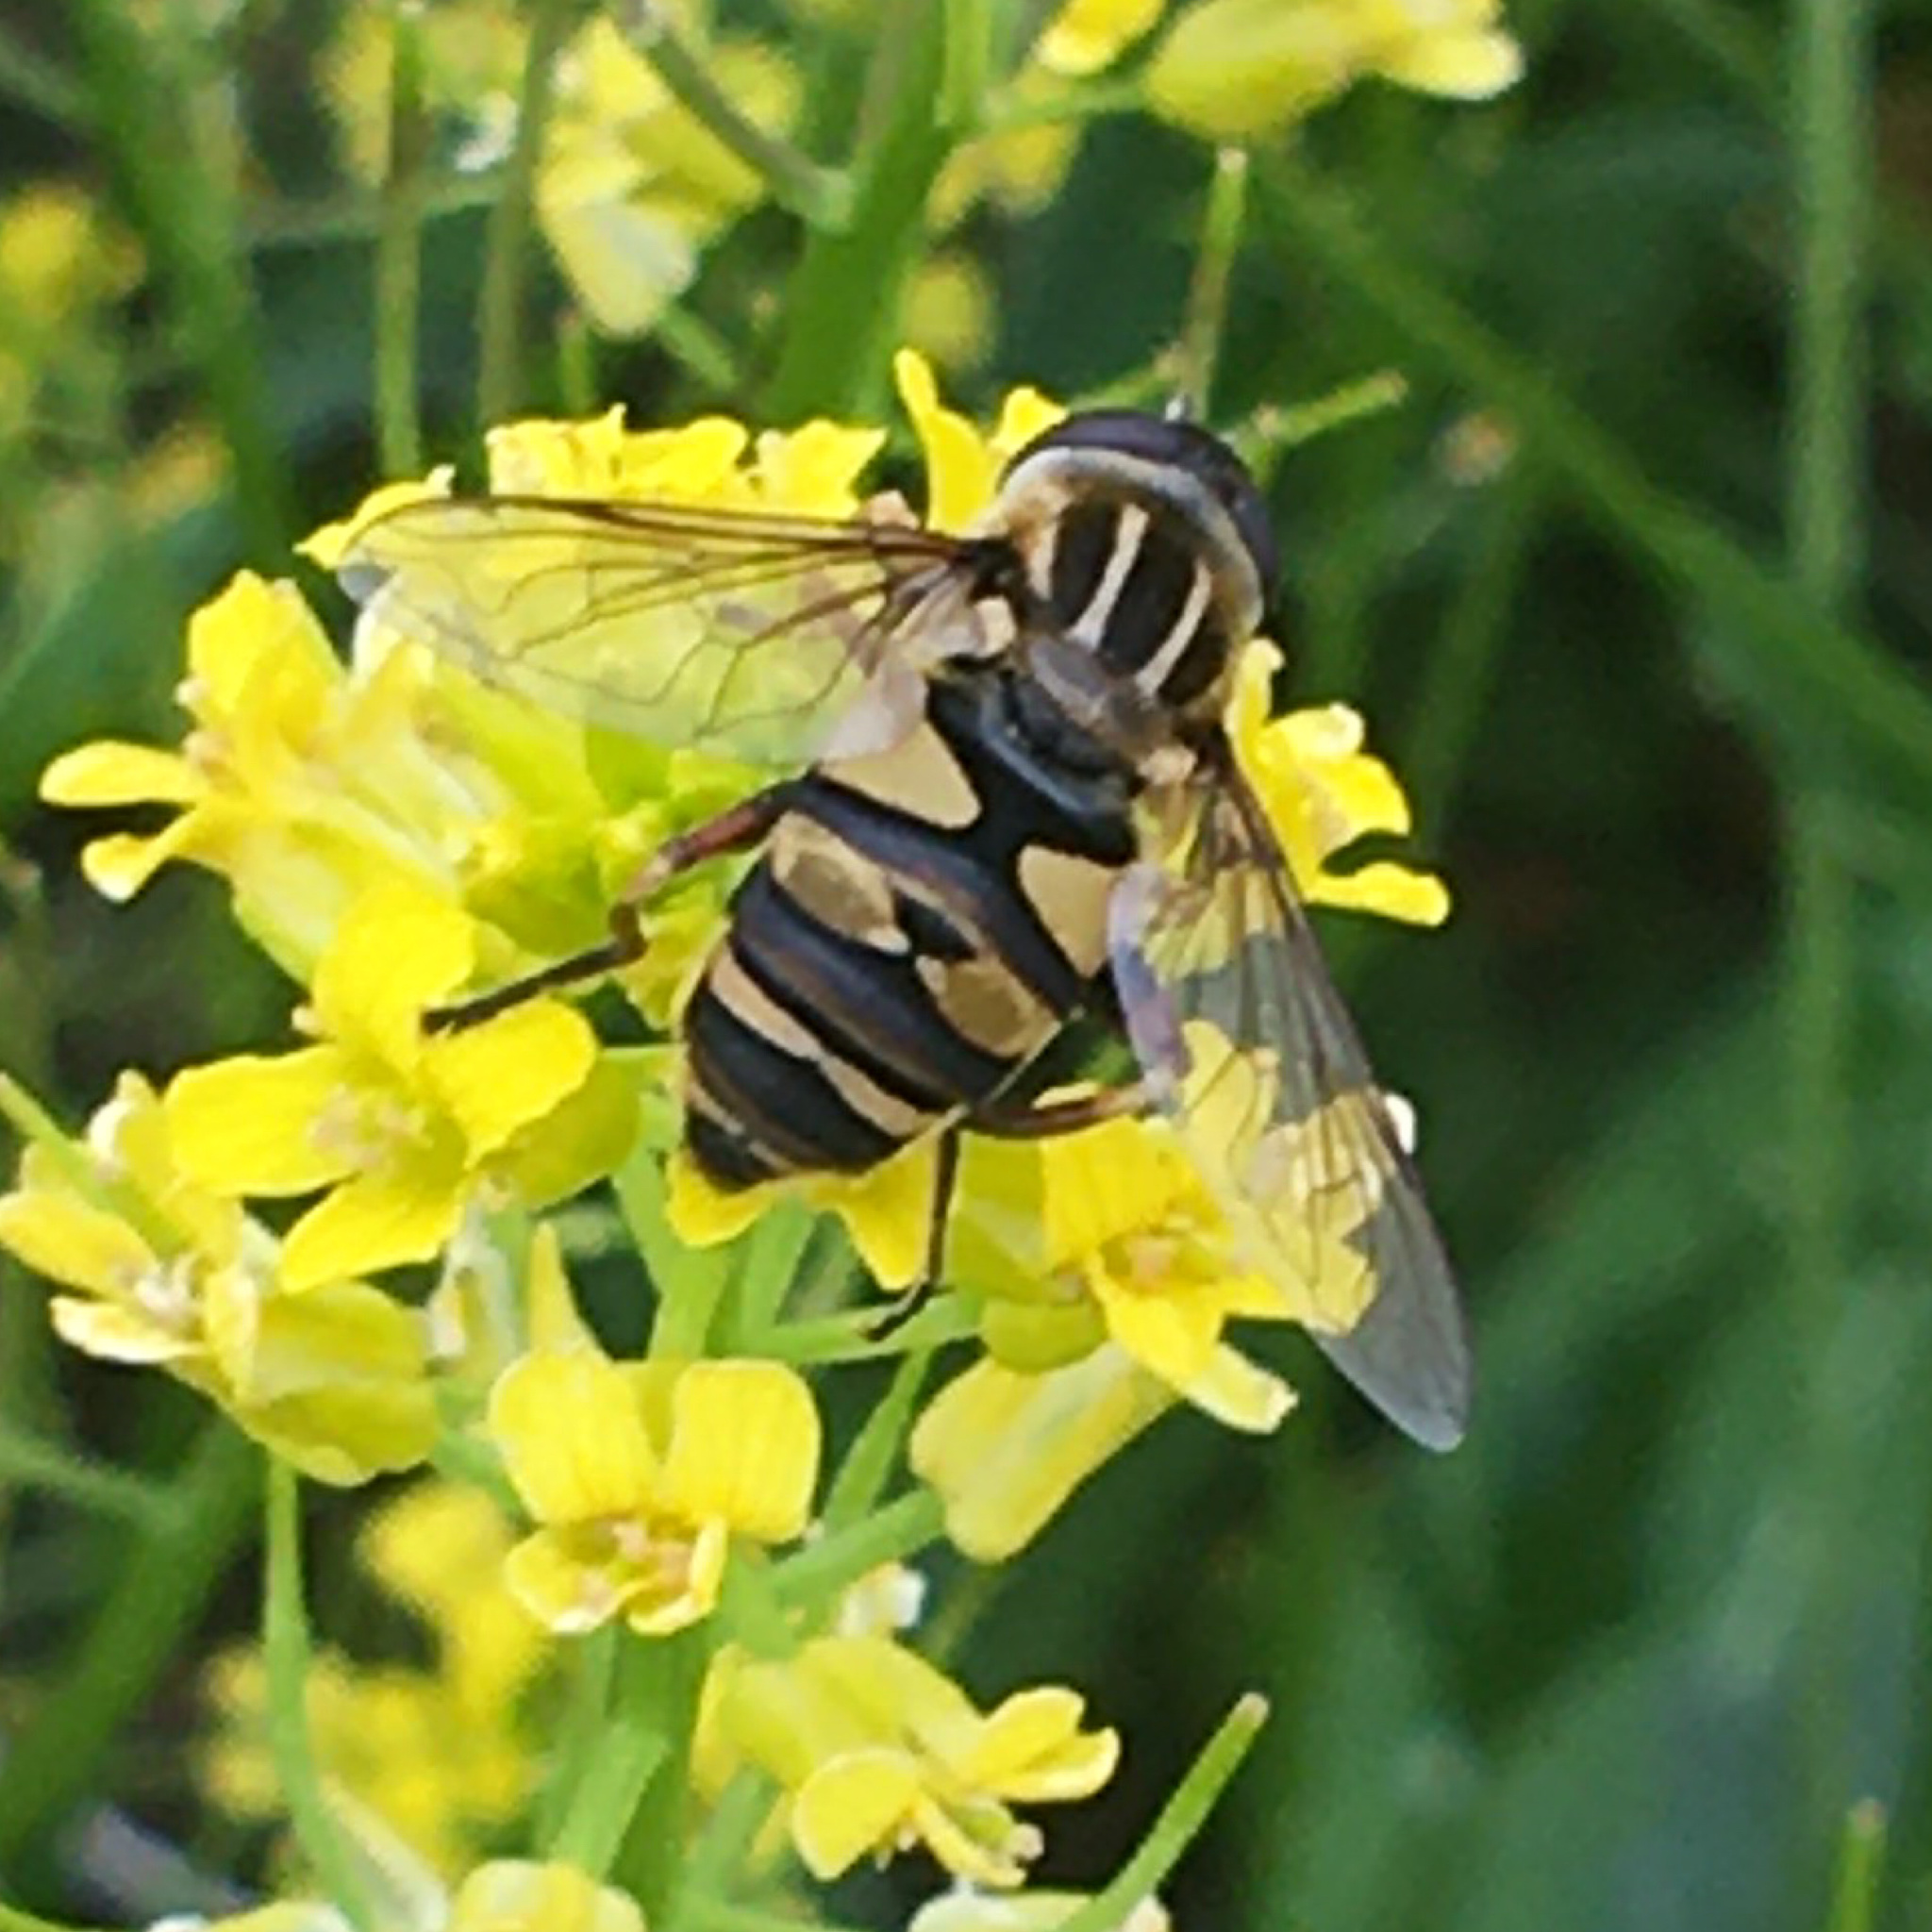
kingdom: Animalia
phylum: Arthropoda
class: Insecta
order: Diptera
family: Syrphidae
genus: Helophilus
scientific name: Helophilus fasciatus
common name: Narrow-headed marsh fly
